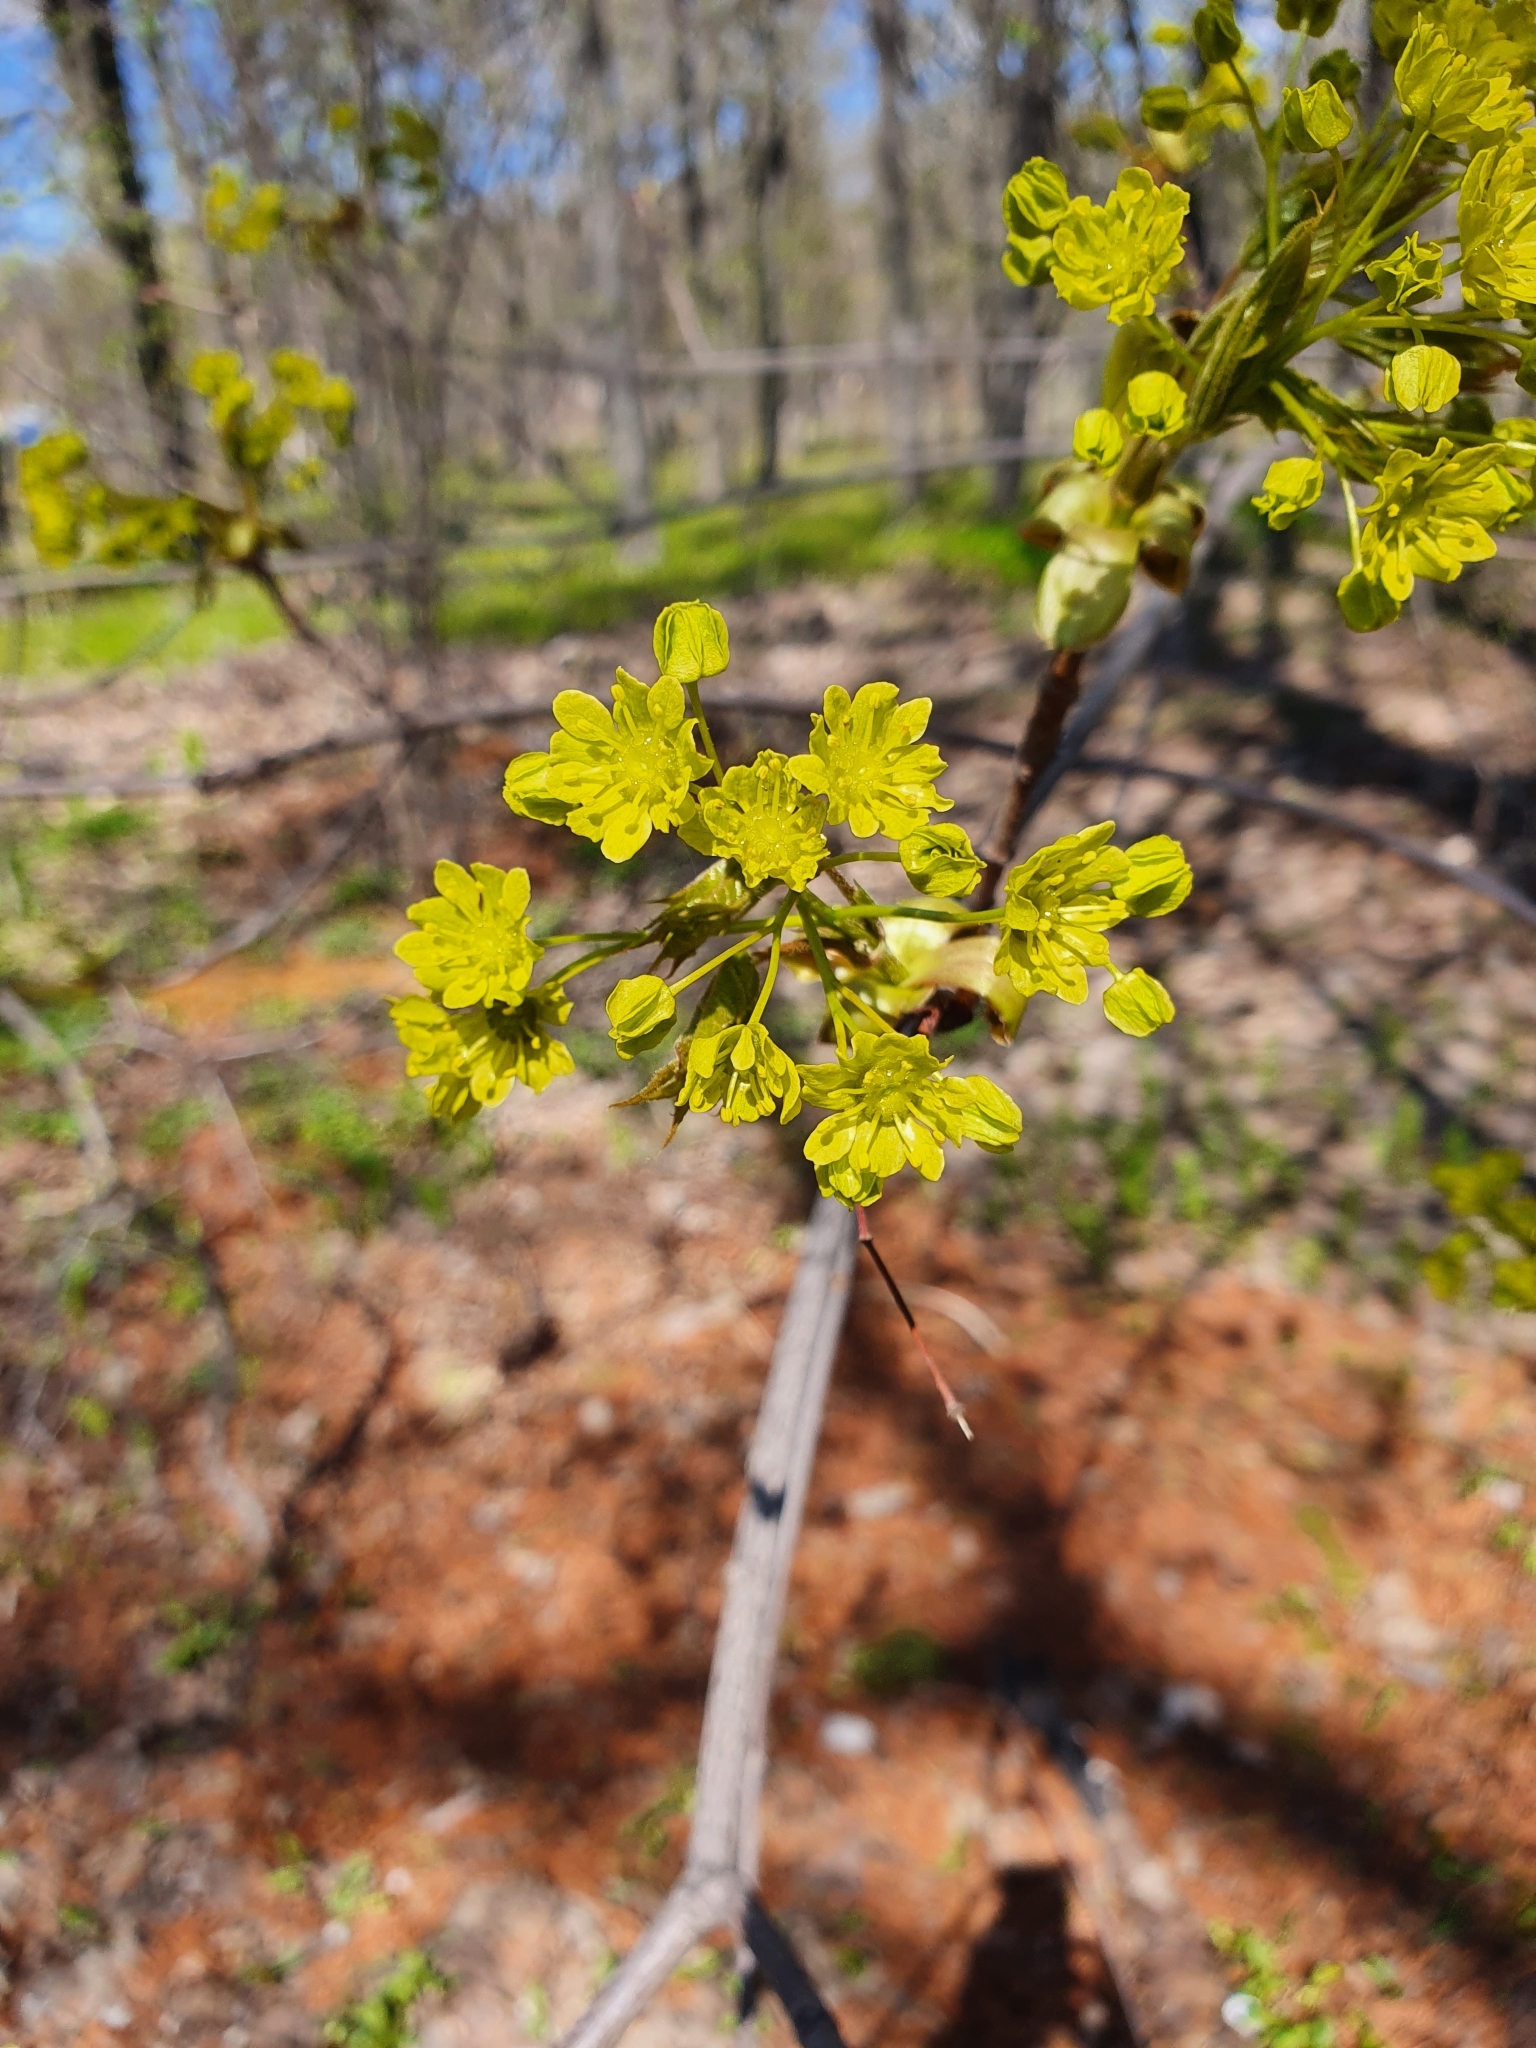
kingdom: Plantae
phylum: Tracheophyta
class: Magnoliopsida
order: Sapindales
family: Sapindaceae
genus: Acer
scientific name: Acer platanoides
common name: Norway maple
